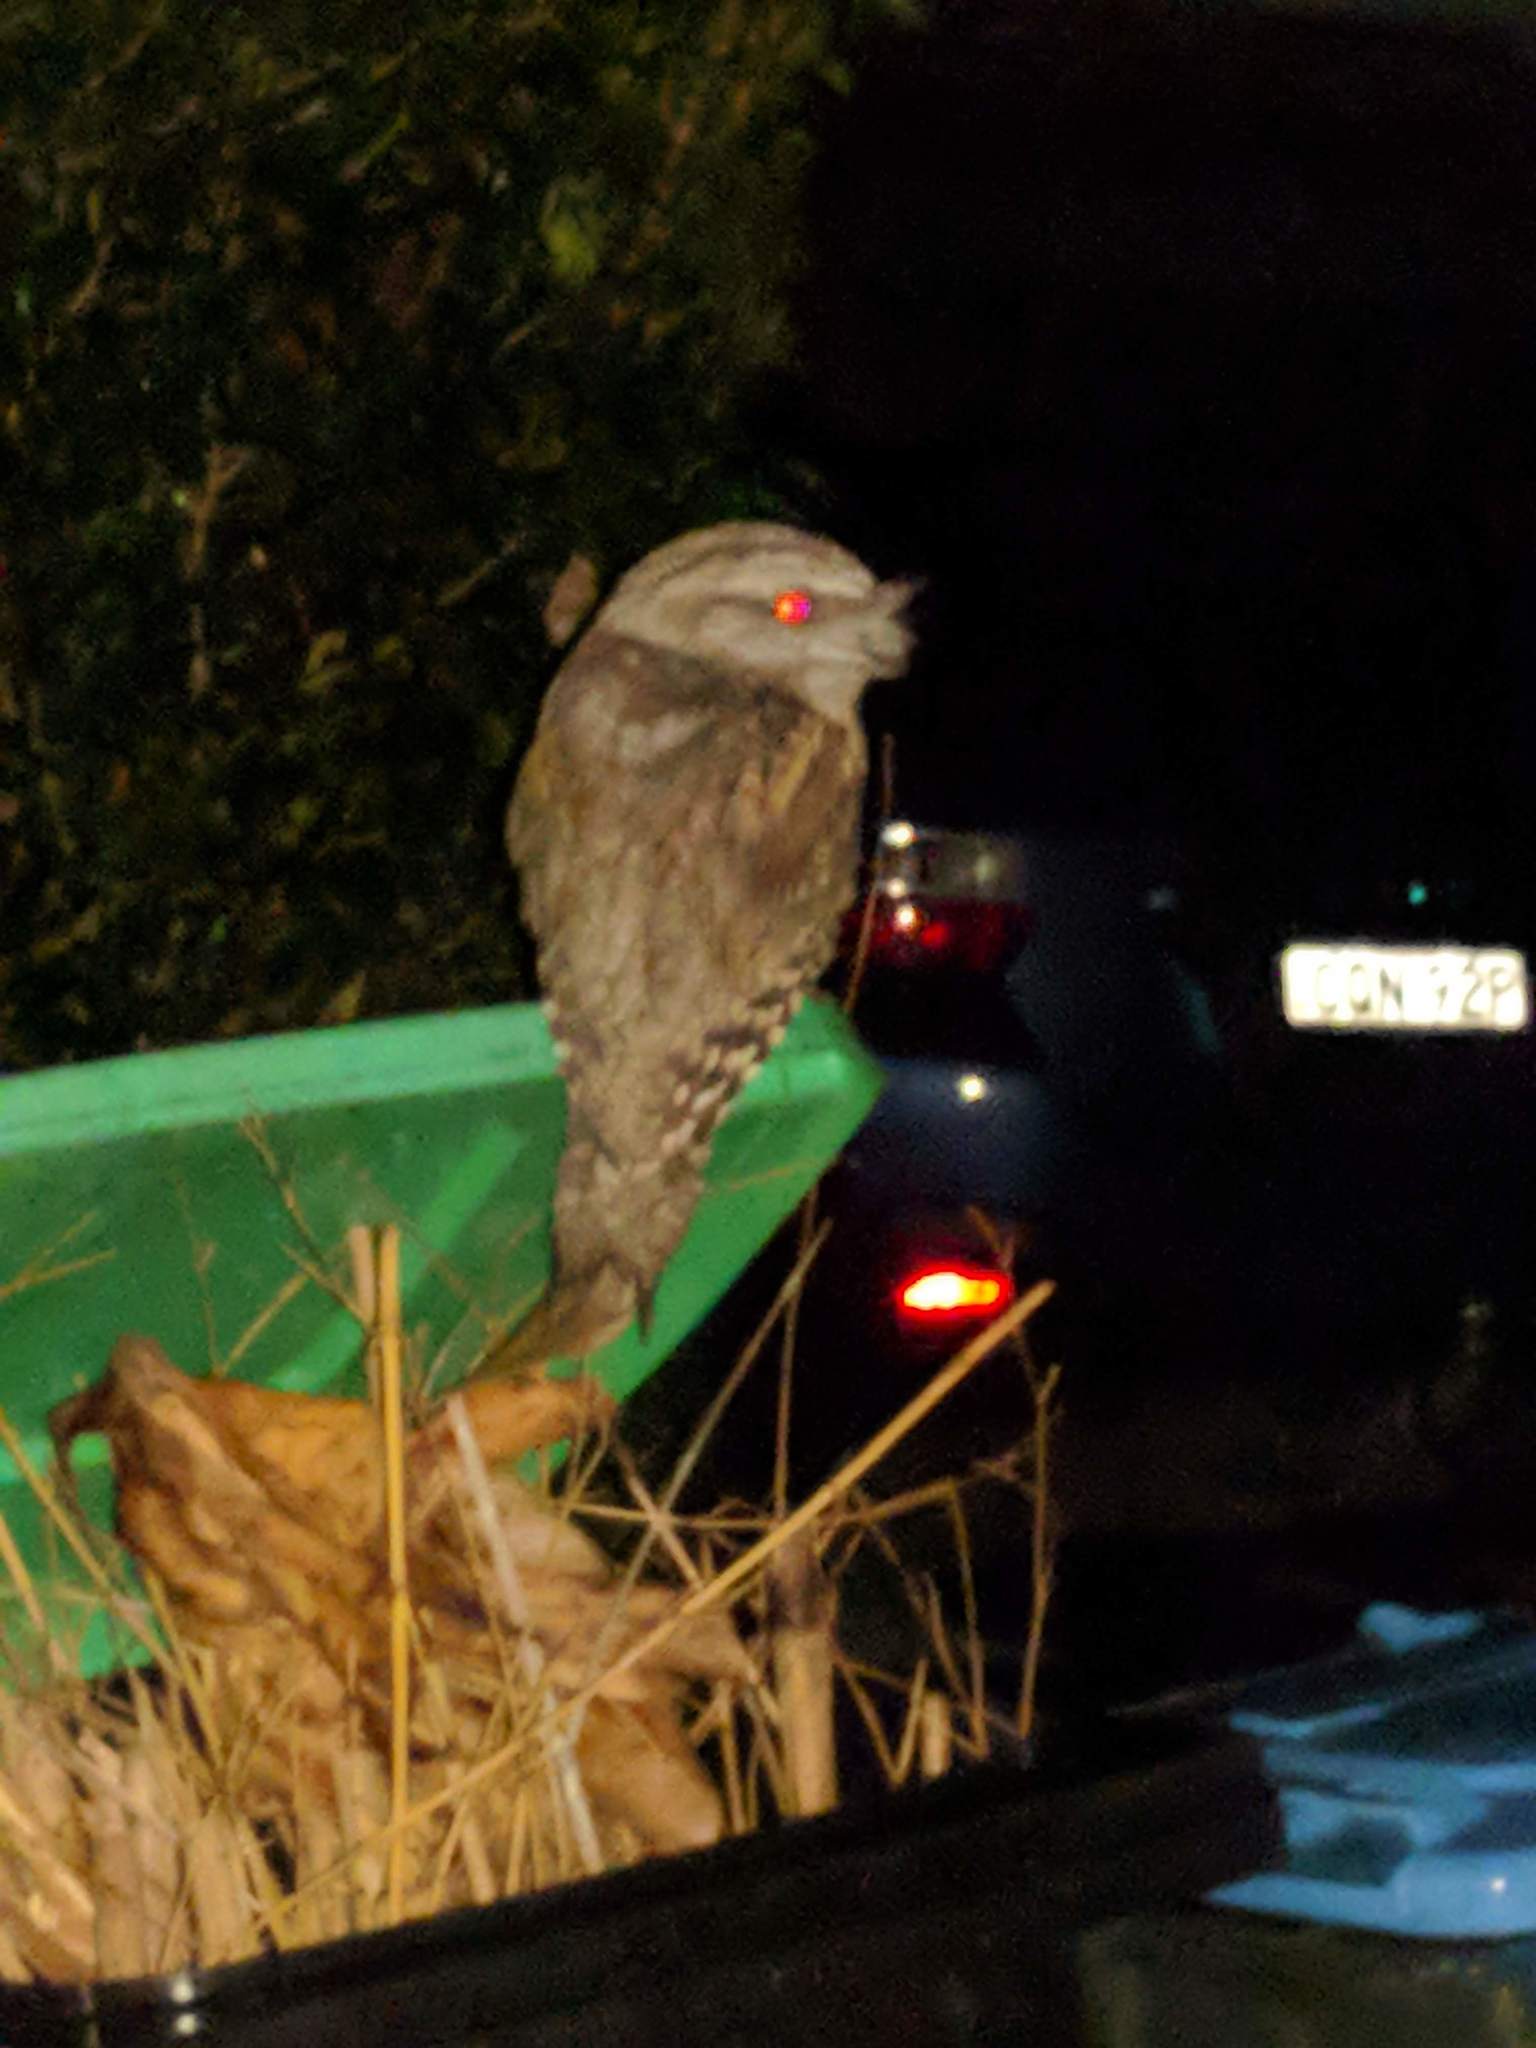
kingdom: Animalia
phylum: Chordata
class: Aves
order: Caprimulgiformes
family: Podargidae
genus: Podargus
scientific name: Podargus strigoides
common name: Tawny frogmouth
